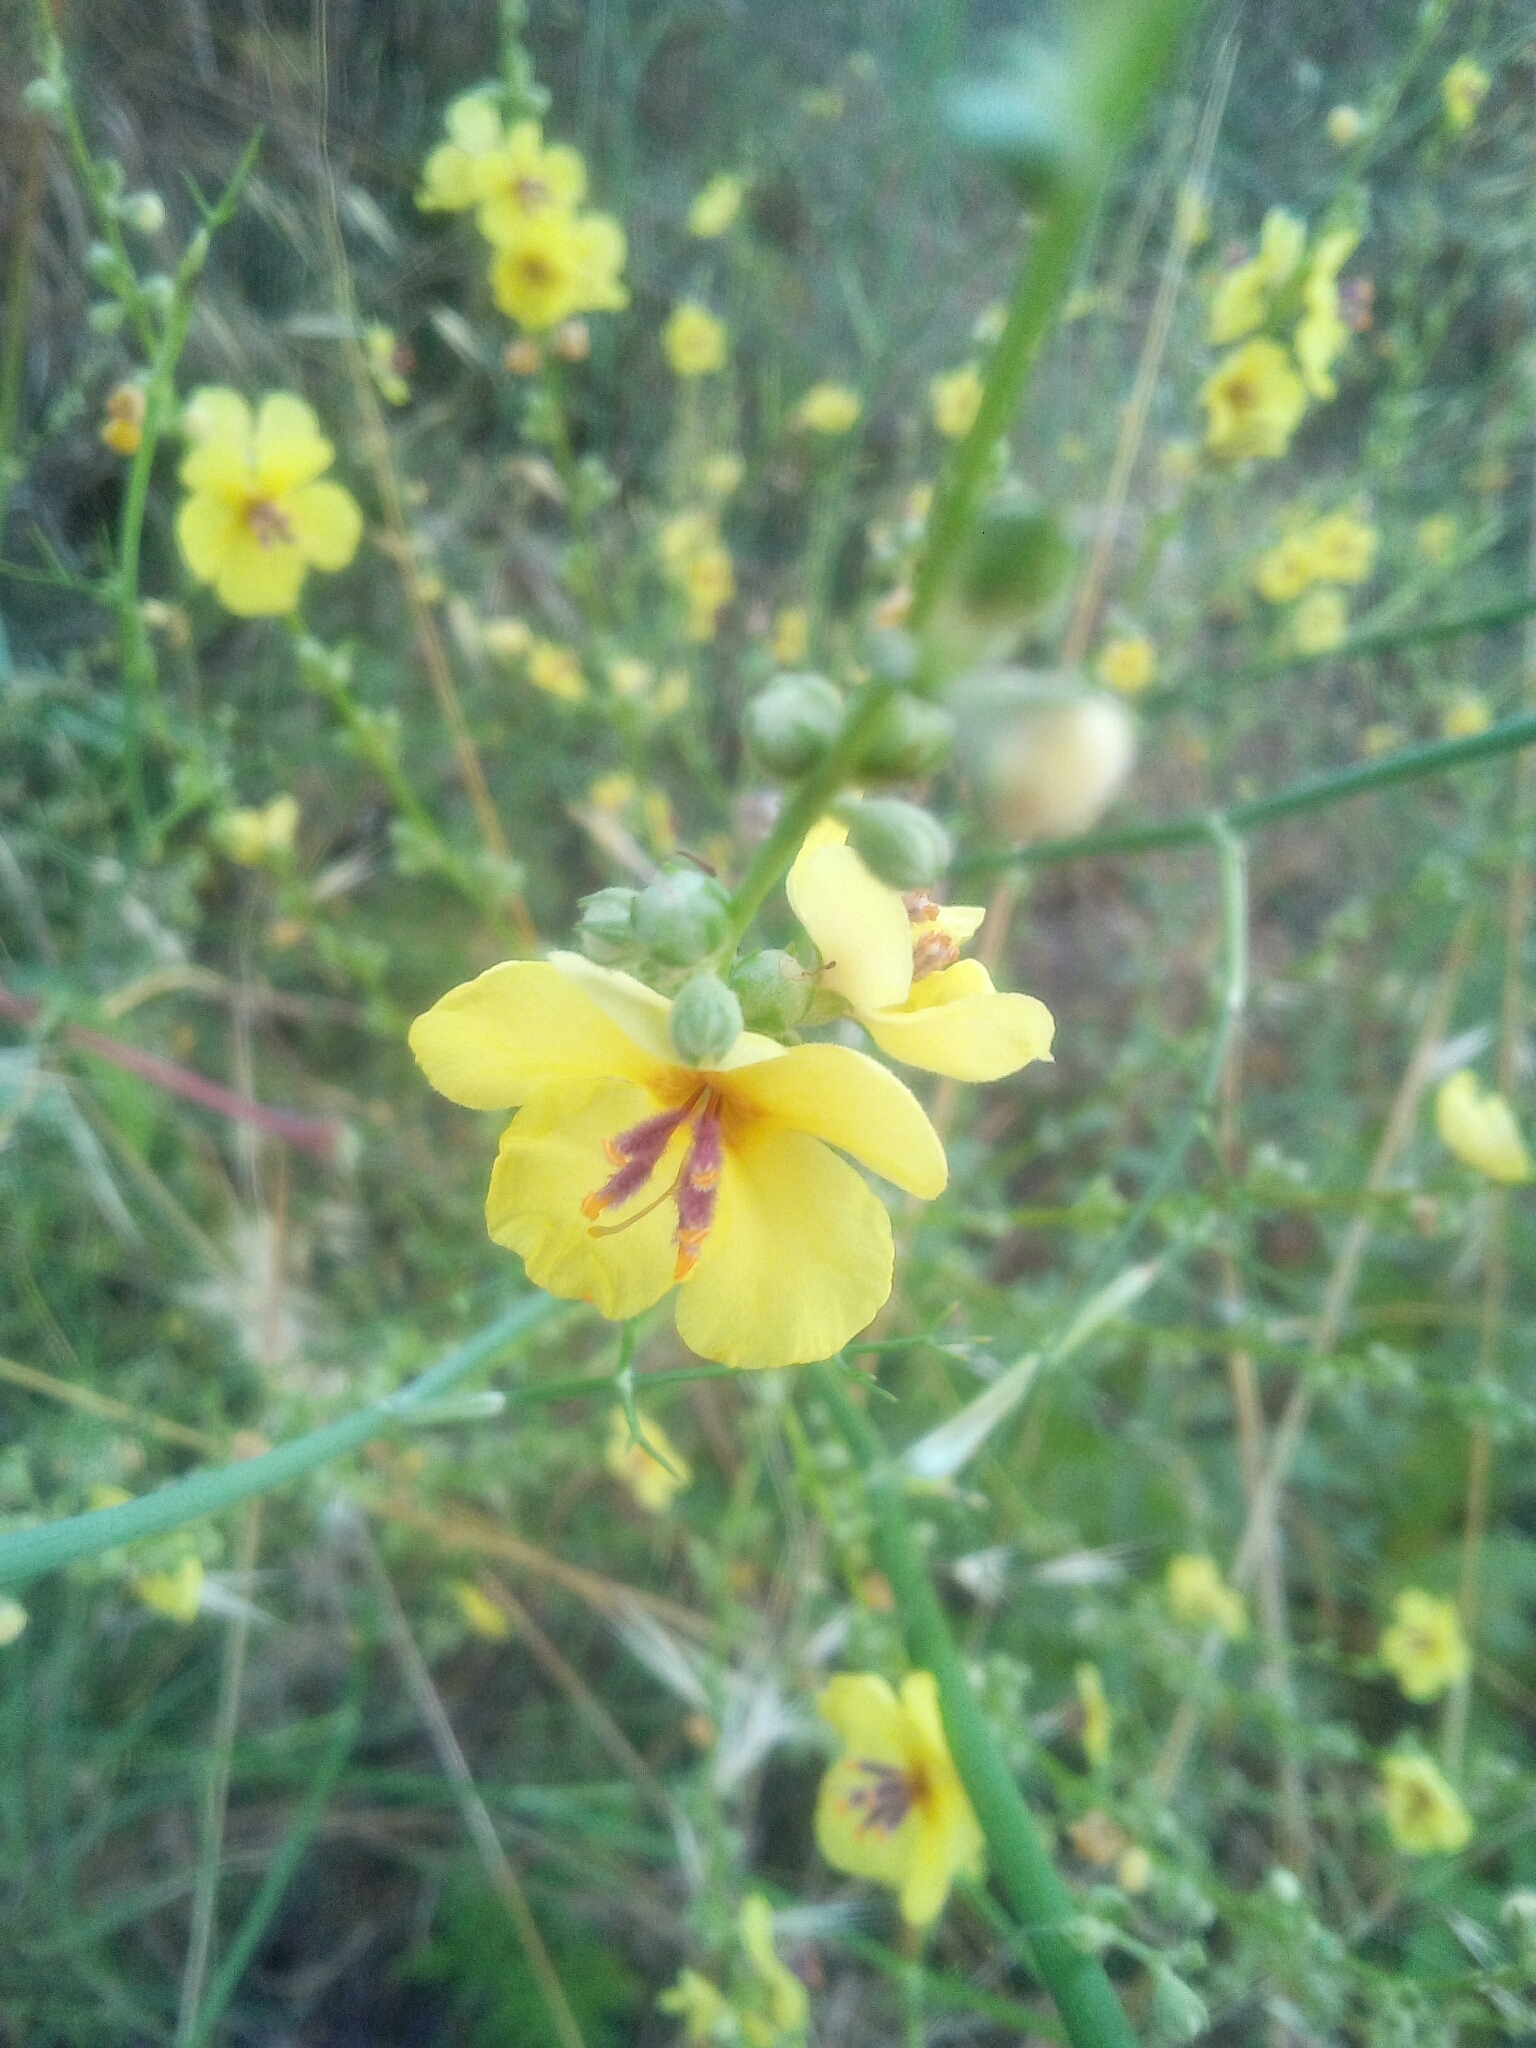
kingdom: Plantae
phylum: Tracheophyta
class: Magnoliopsida
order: Lamiales
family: Scrophulariaceae
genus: Verbascum
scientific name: Verbascum sinuatum
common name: Wavyleaf mullein
